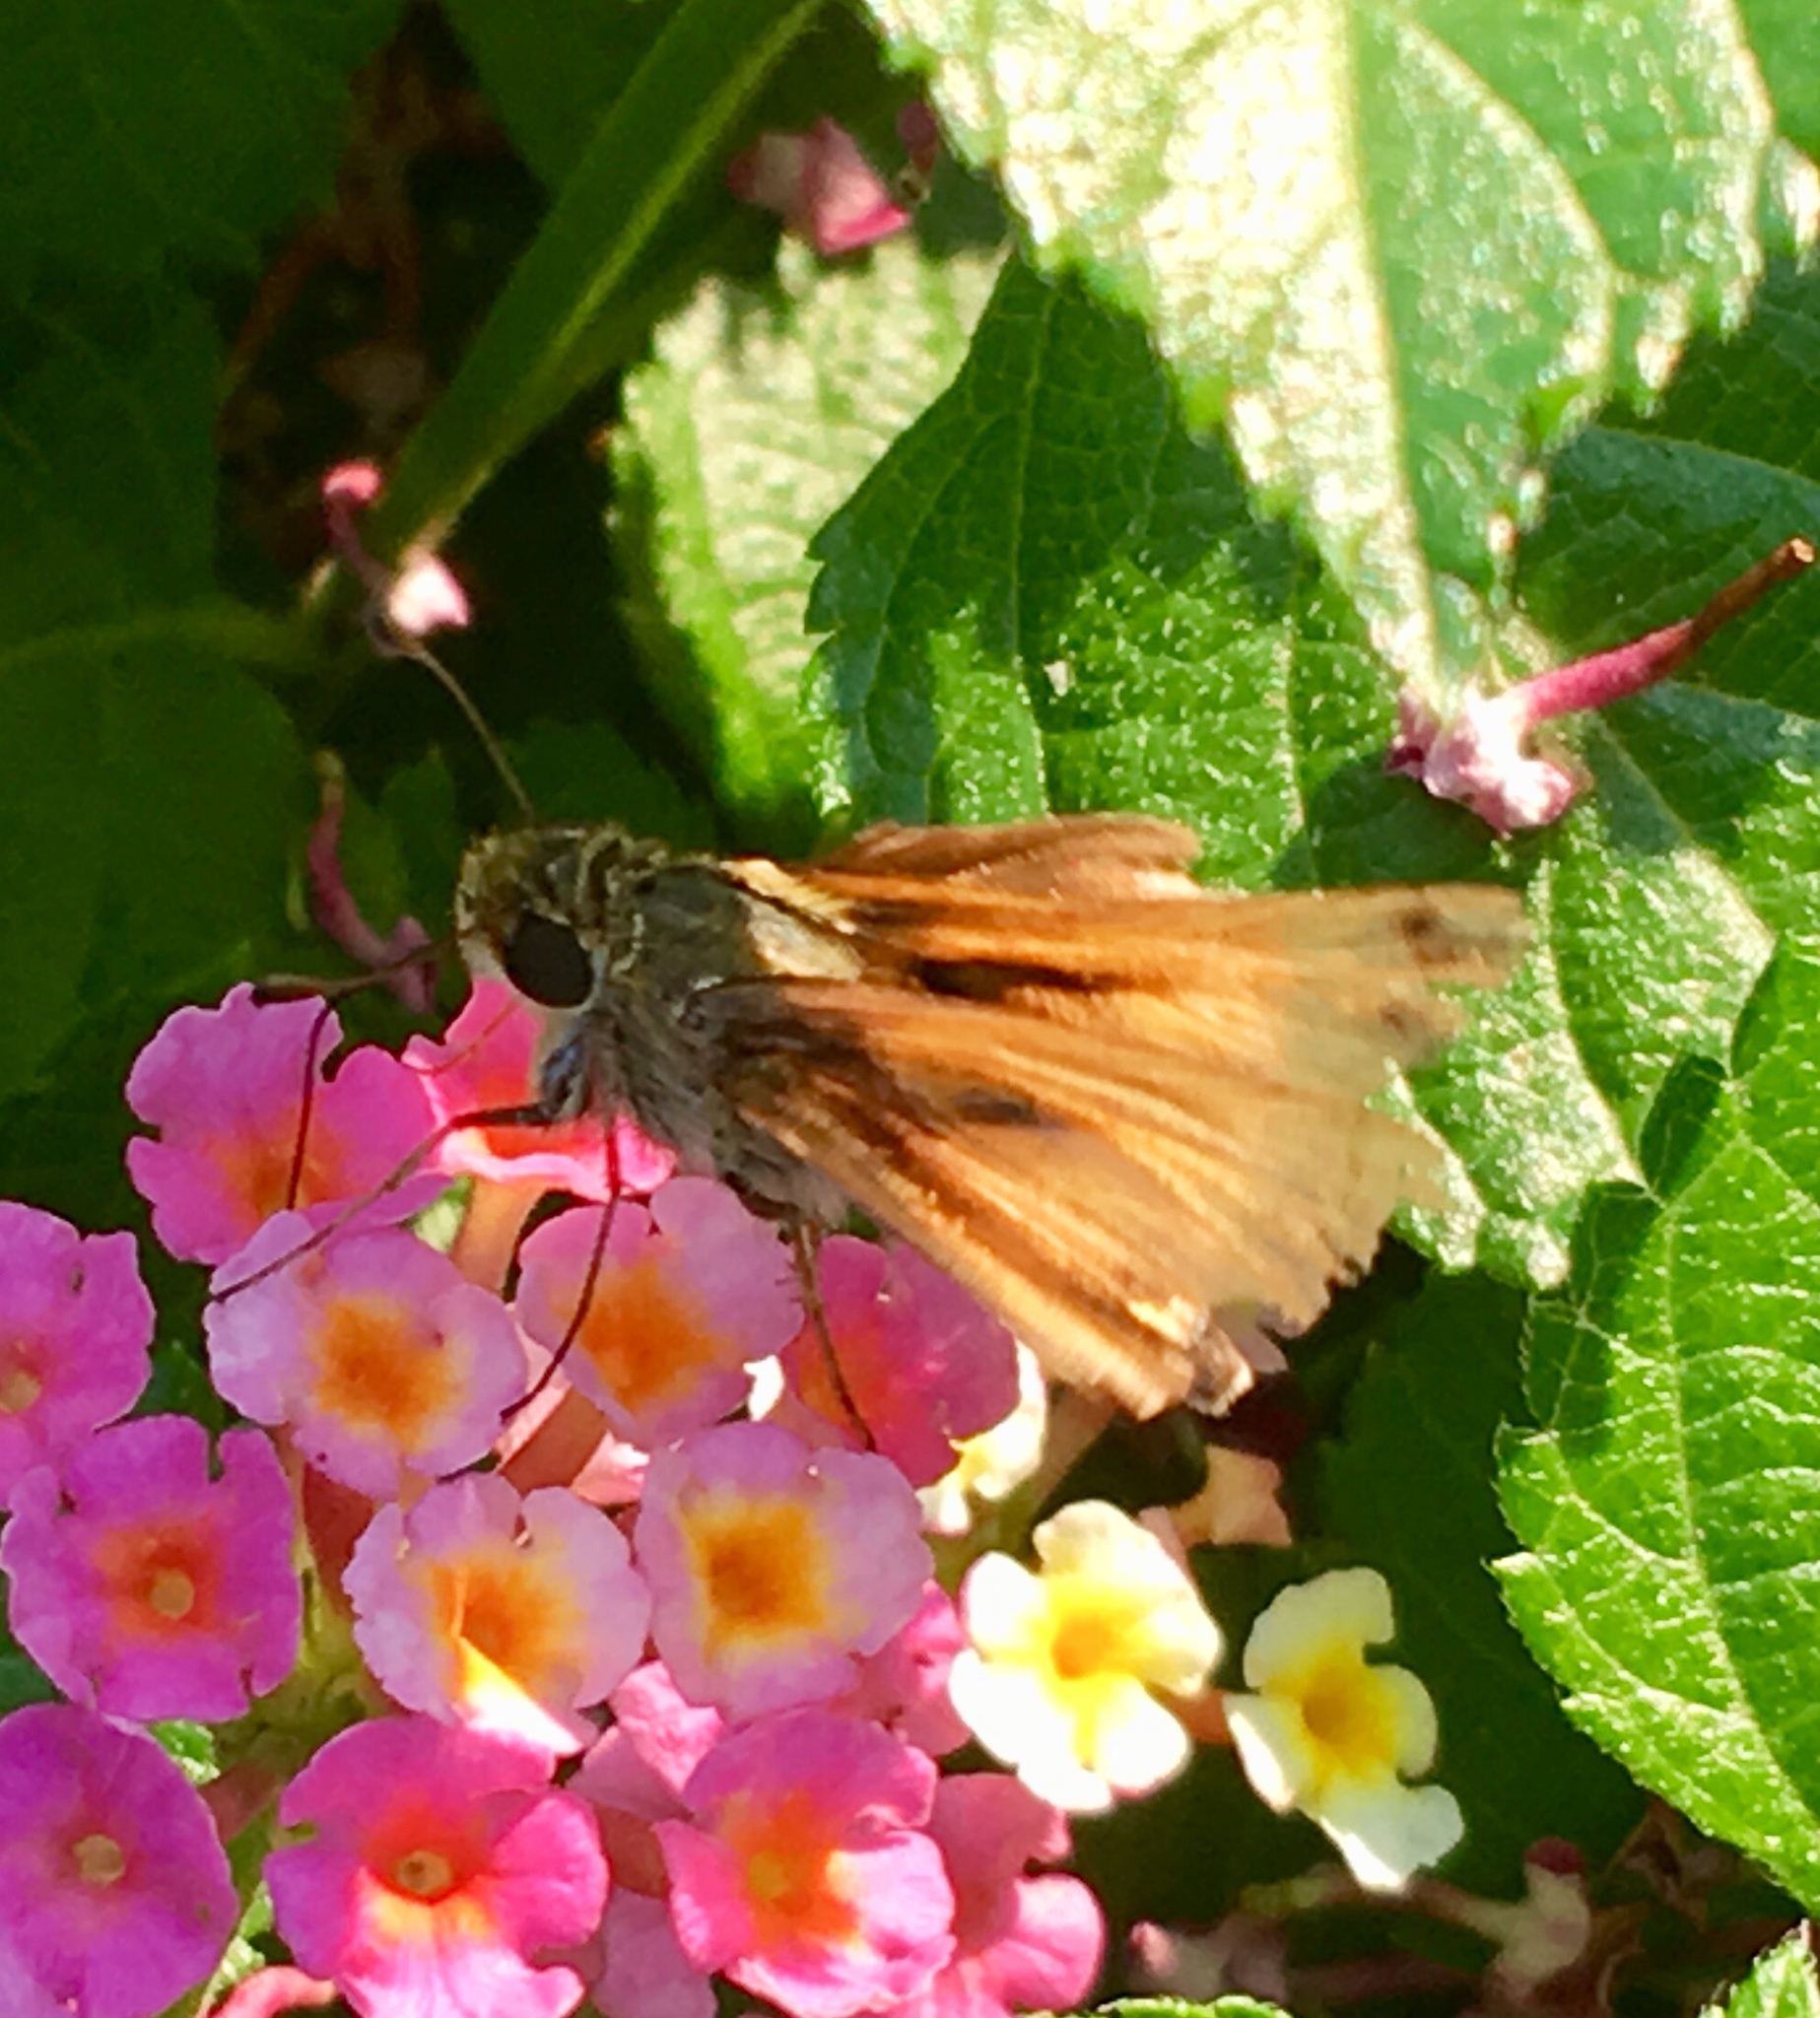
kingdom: Animalia
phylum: Arthropoda
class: Insecta
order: Lepidoptera
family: Hesperiidae
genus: Atalopedes
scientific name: Atalopedes
